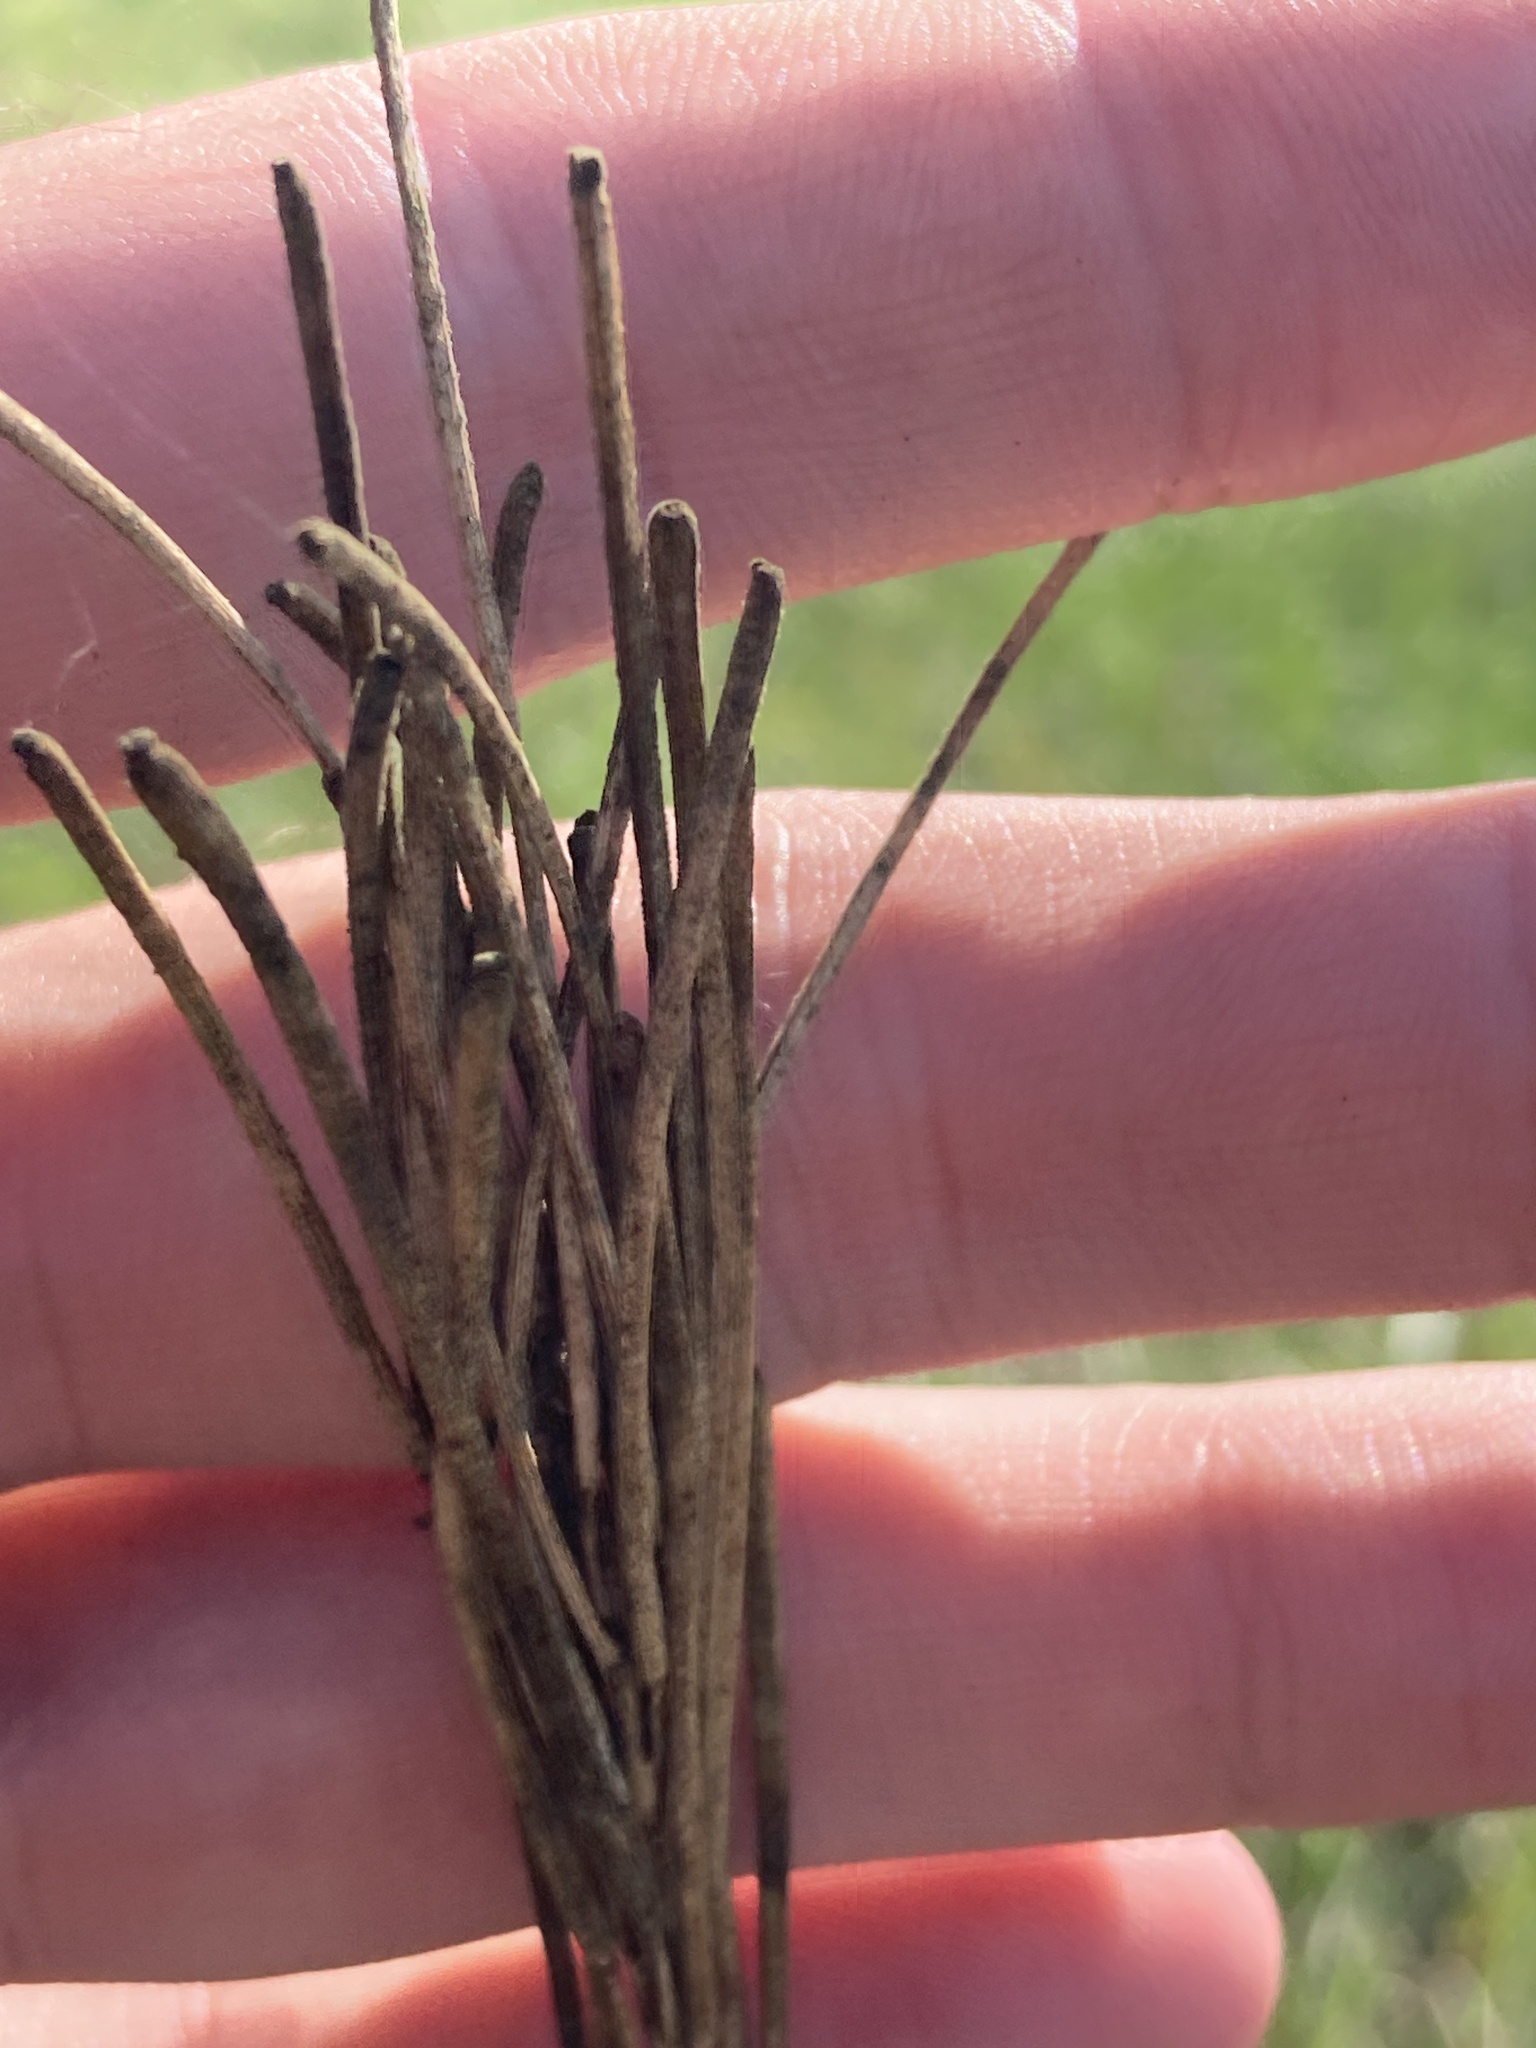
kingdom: Plantae
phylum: Tracheophyta
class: Magnoliopsida
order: Brassicales
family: Brassicaceae
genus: Turritis
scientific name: Turritis glabra
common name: Tower rockcress
